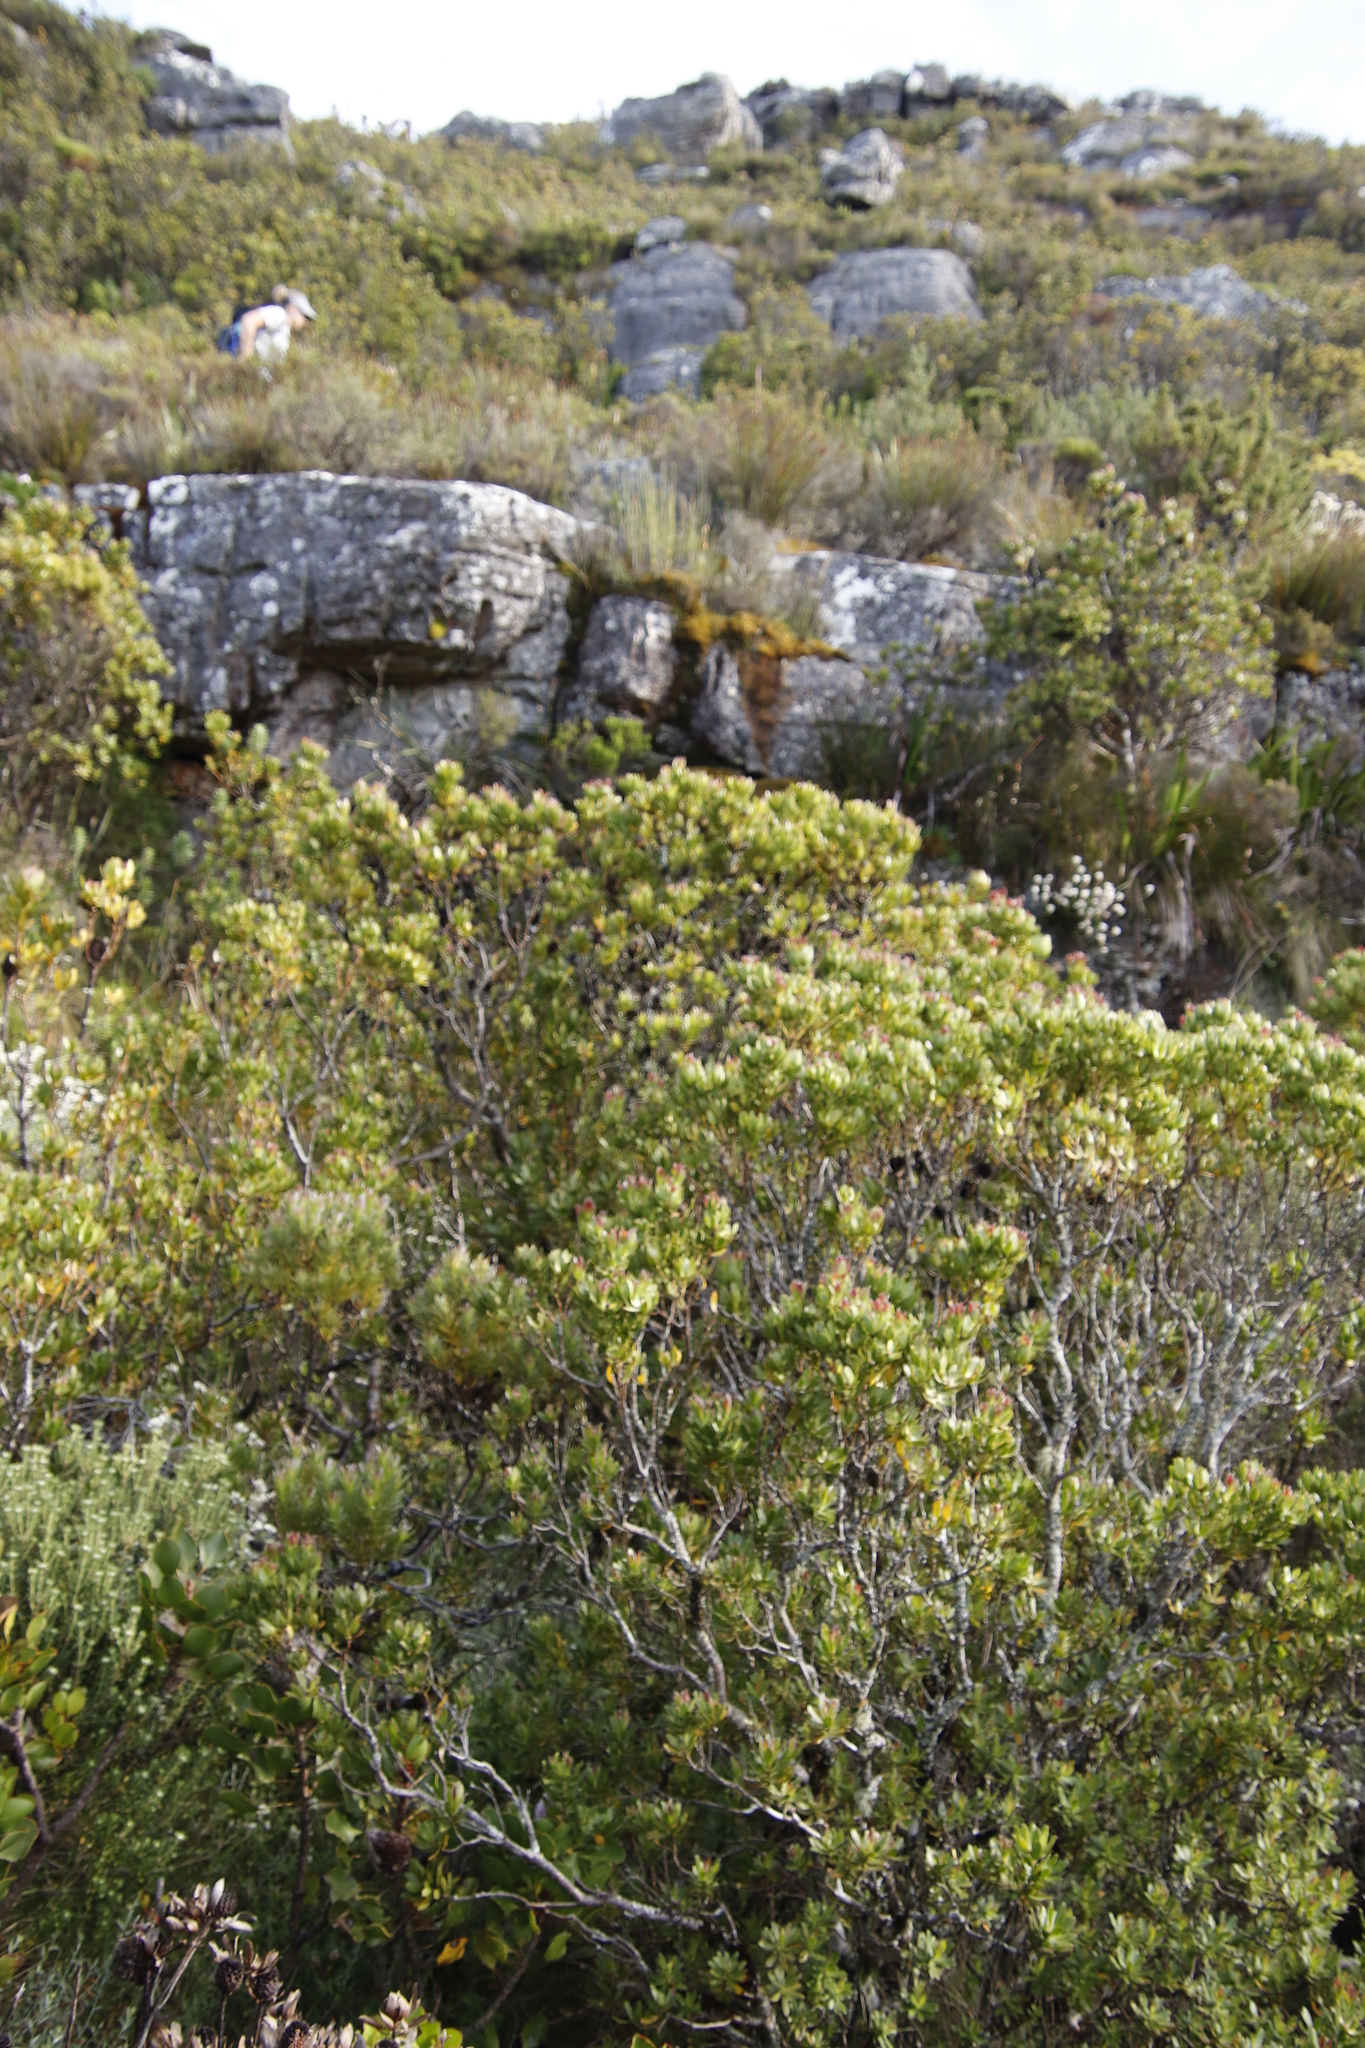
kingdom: Plantae
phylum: Tracheophyta
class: Magnoliopsida
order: Proteales
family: Proteaceae
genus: Leucadendron
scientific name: Leucadendron strobilinum
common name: Mountain rose
